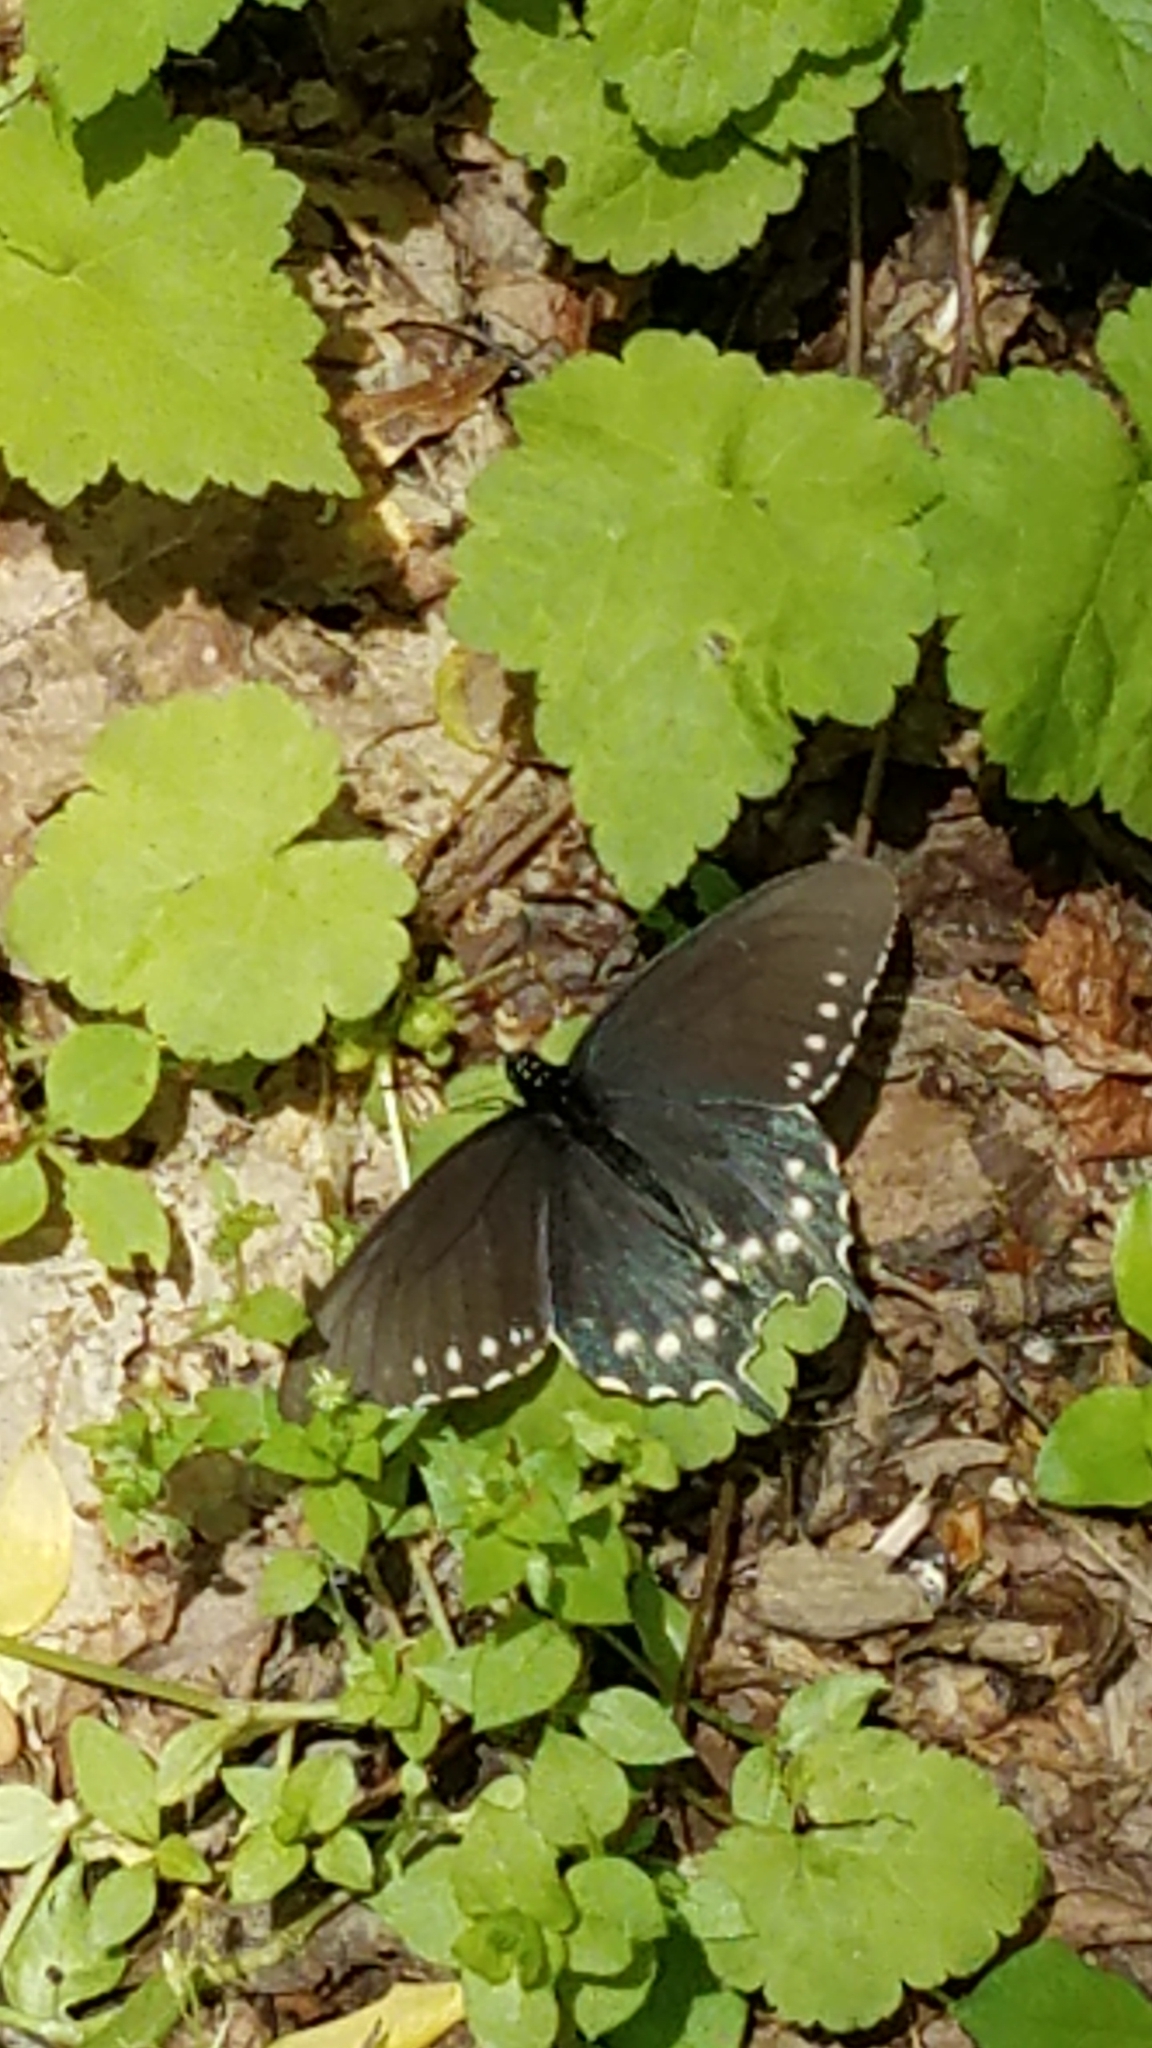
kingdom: Animalia
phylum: Arthropoda
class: Insecta
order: Lepidoptera
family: Papilionidae
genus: Battus
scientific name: Battus philenor
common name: Pipevine swallowtail
